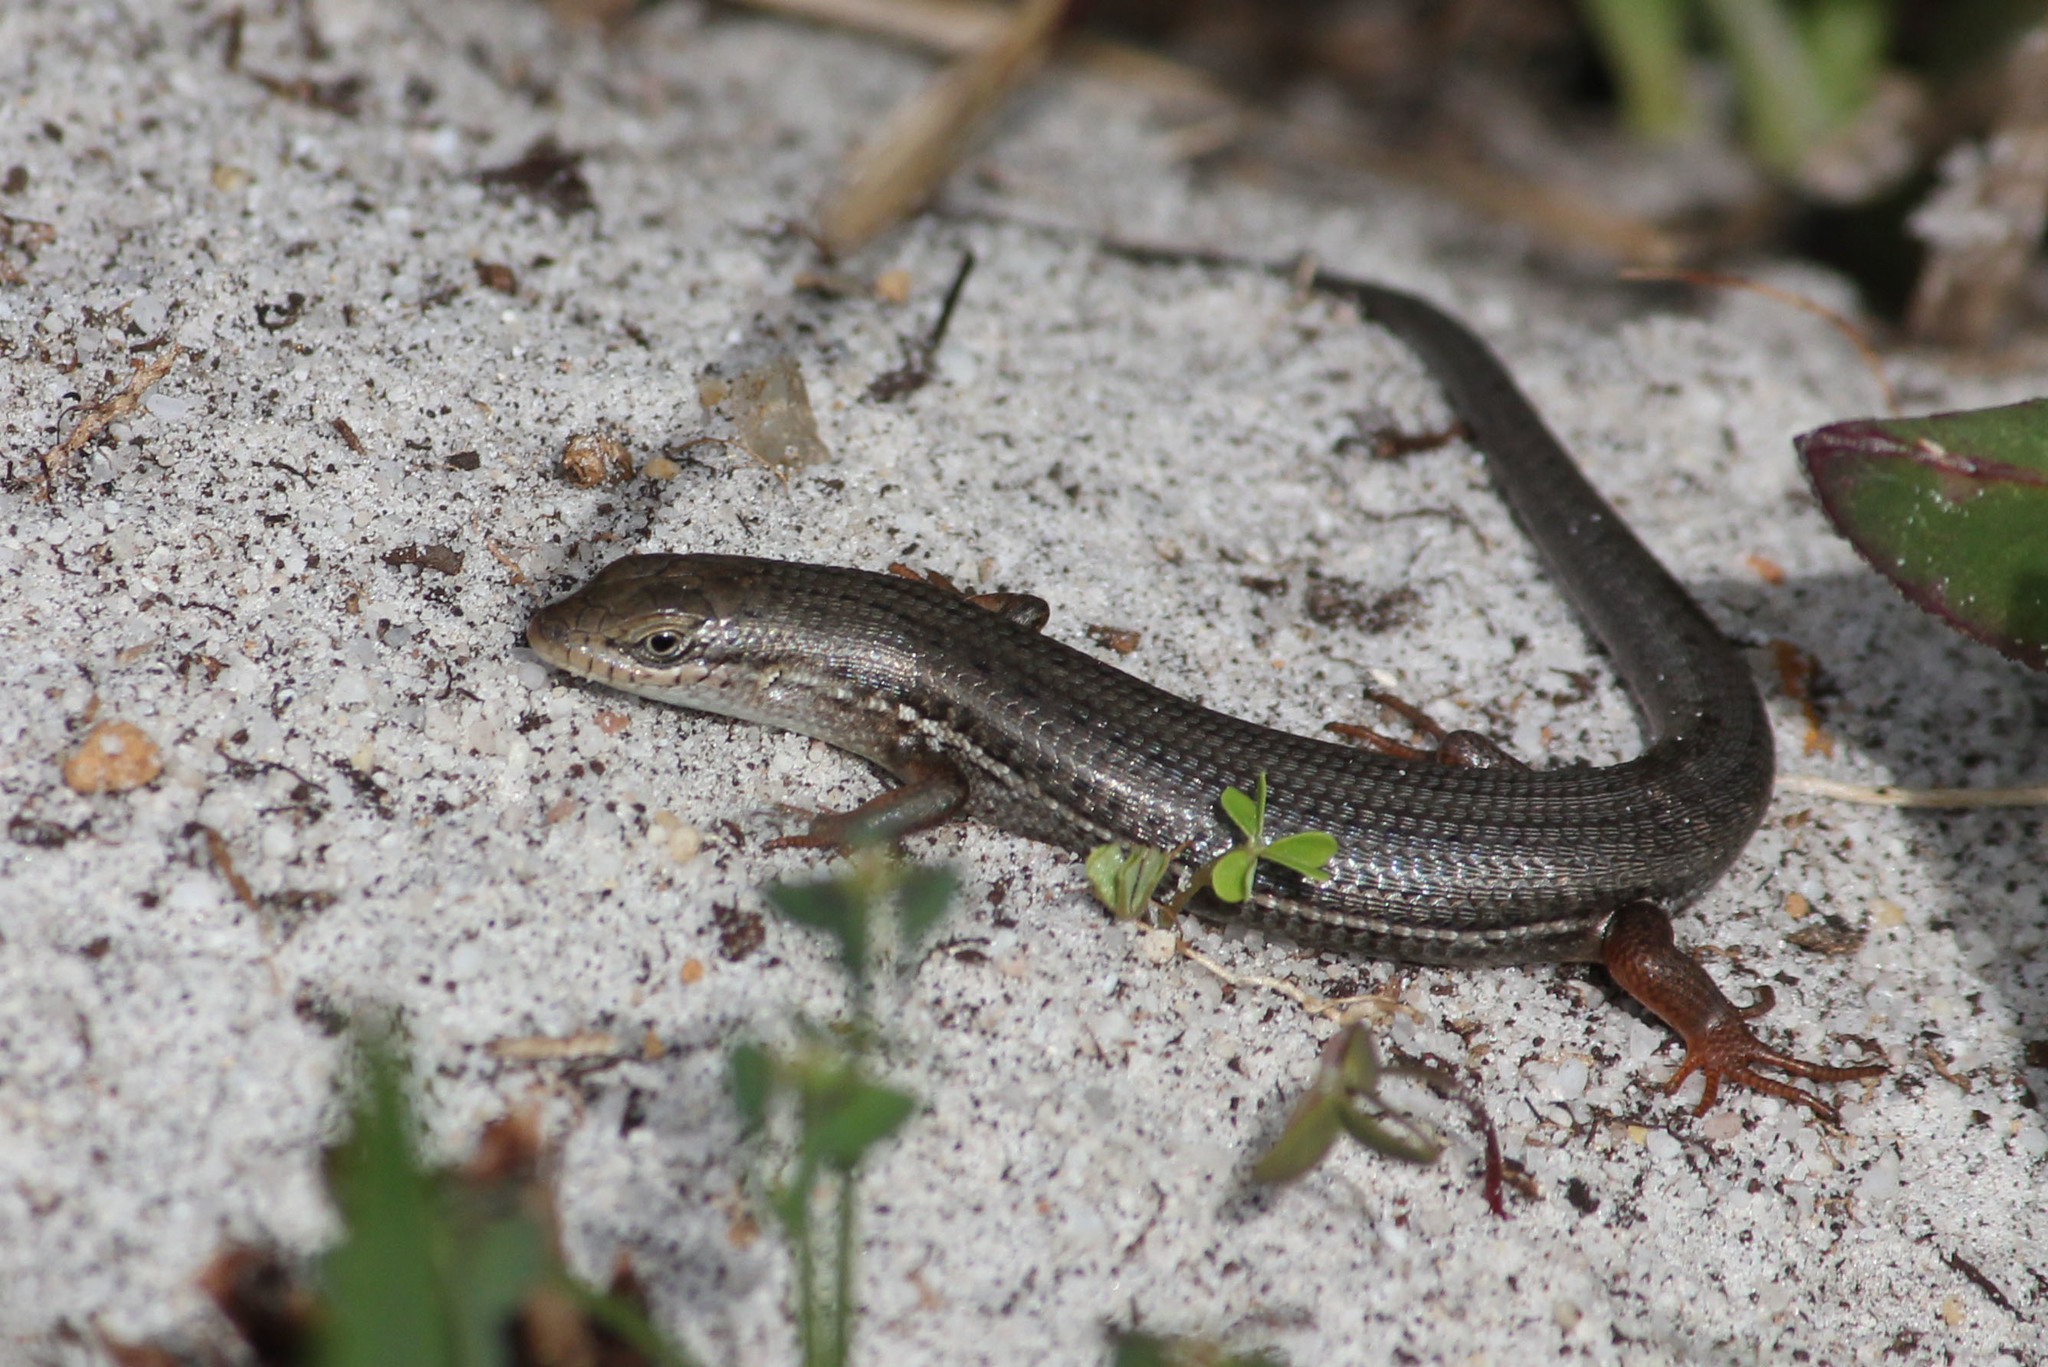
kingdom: Animalia
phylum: Chordata
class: Squamata
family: Scincidae
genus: Trachylepis
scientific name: Trachylepis homalocephala
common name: Red-sided skink
